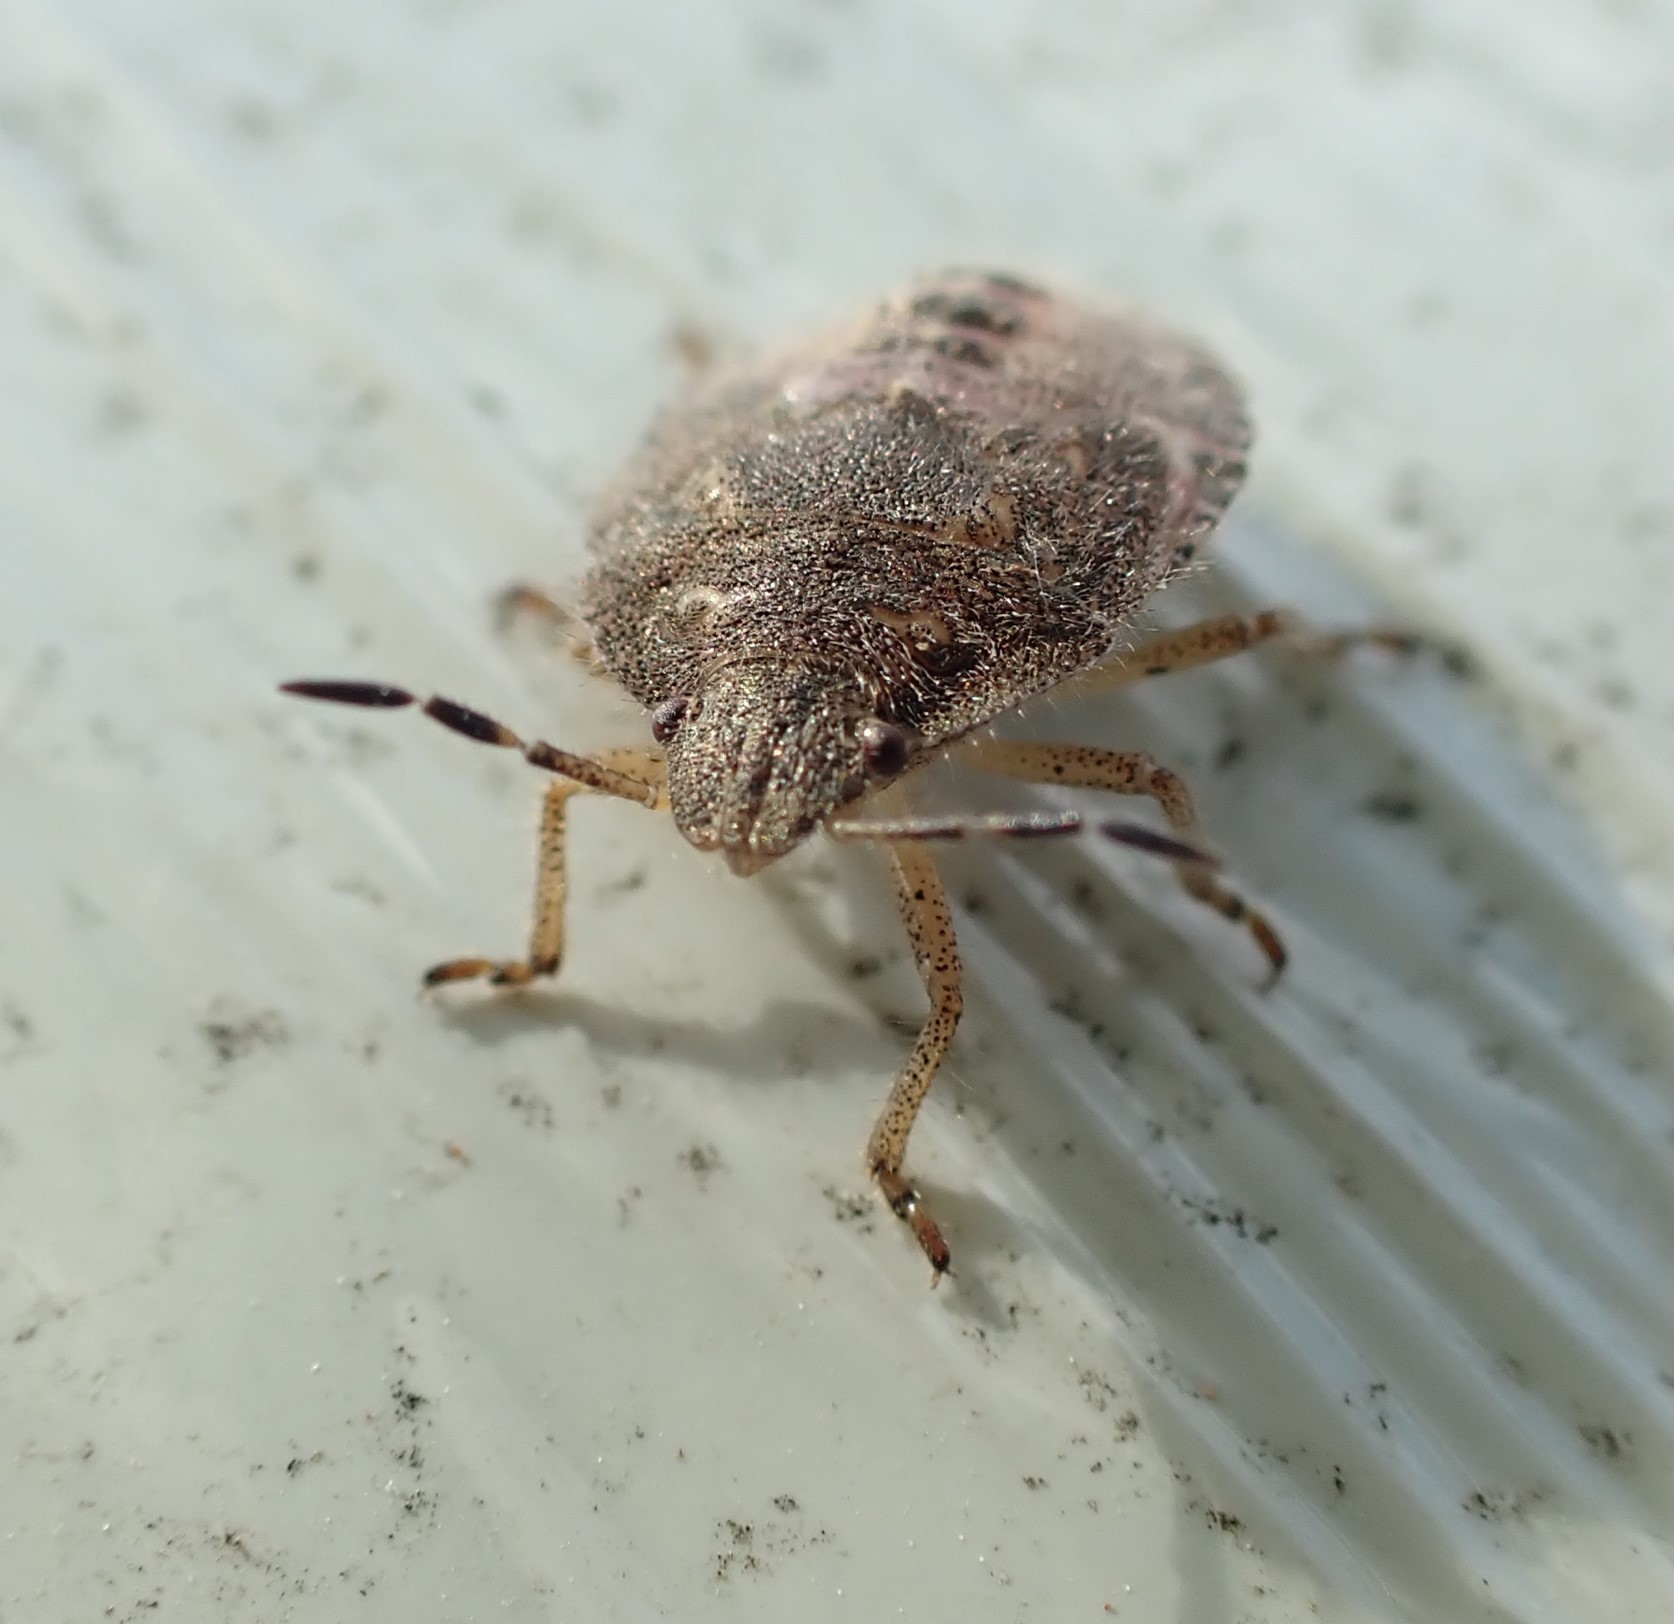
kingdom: Animalia
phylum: Arthropoda
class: Insecta
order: Hemiptera
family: Pentatomidae
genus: Dolycoris
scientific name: Dolycoris baccarum
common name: Sloe bug
